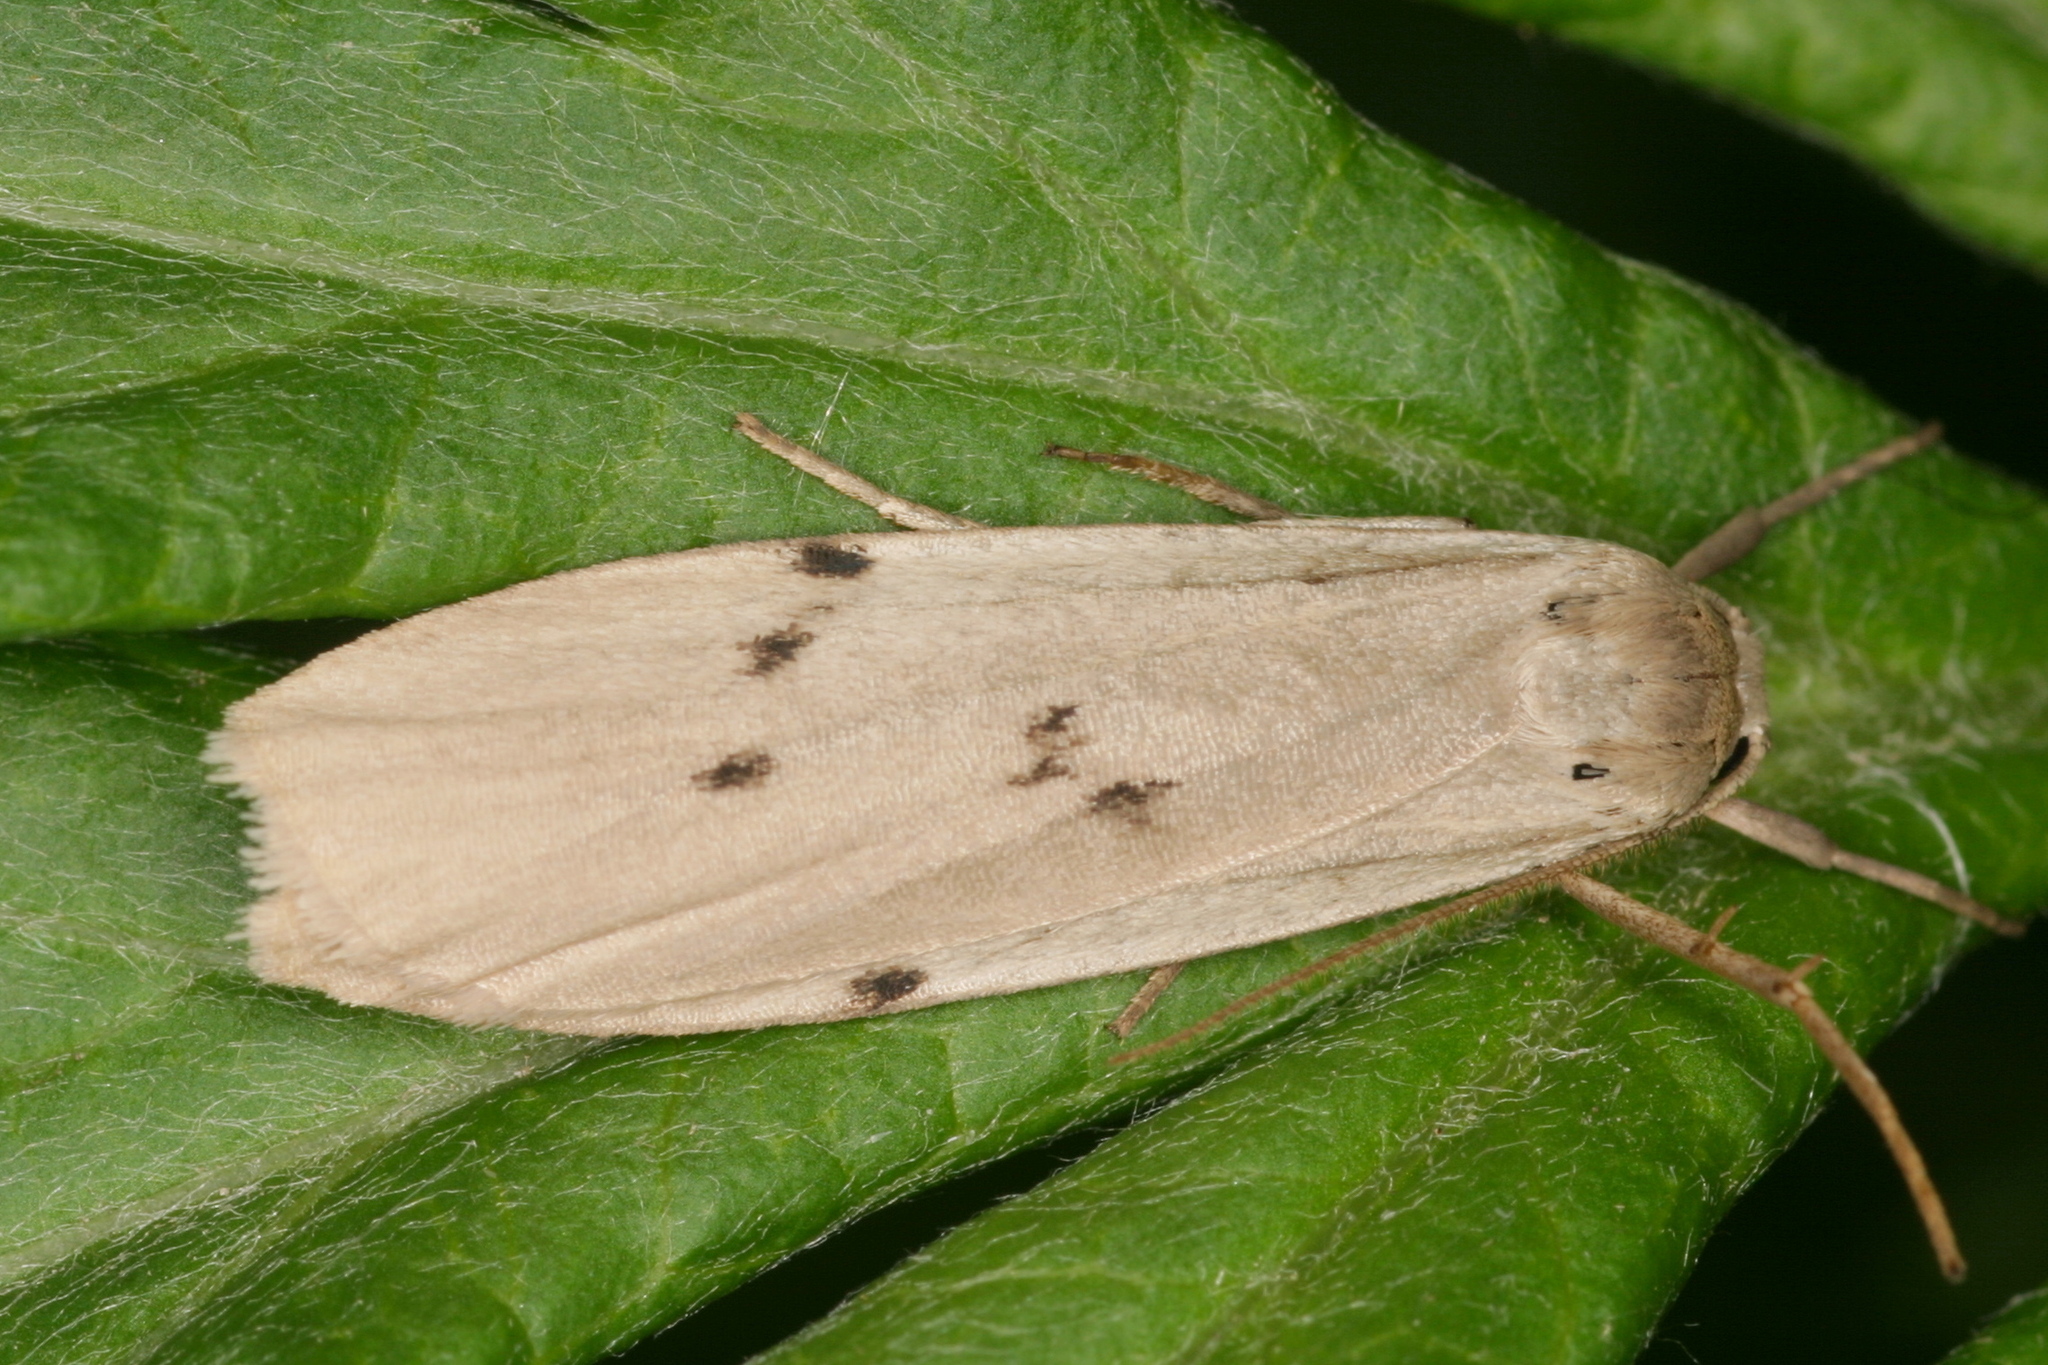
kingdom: Animalia
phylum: Arthropoda
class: Insecta
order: Lepidoptera
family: Erebidae
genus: Pelosia
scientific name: Pelosia muscerda
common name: Dotted footman
